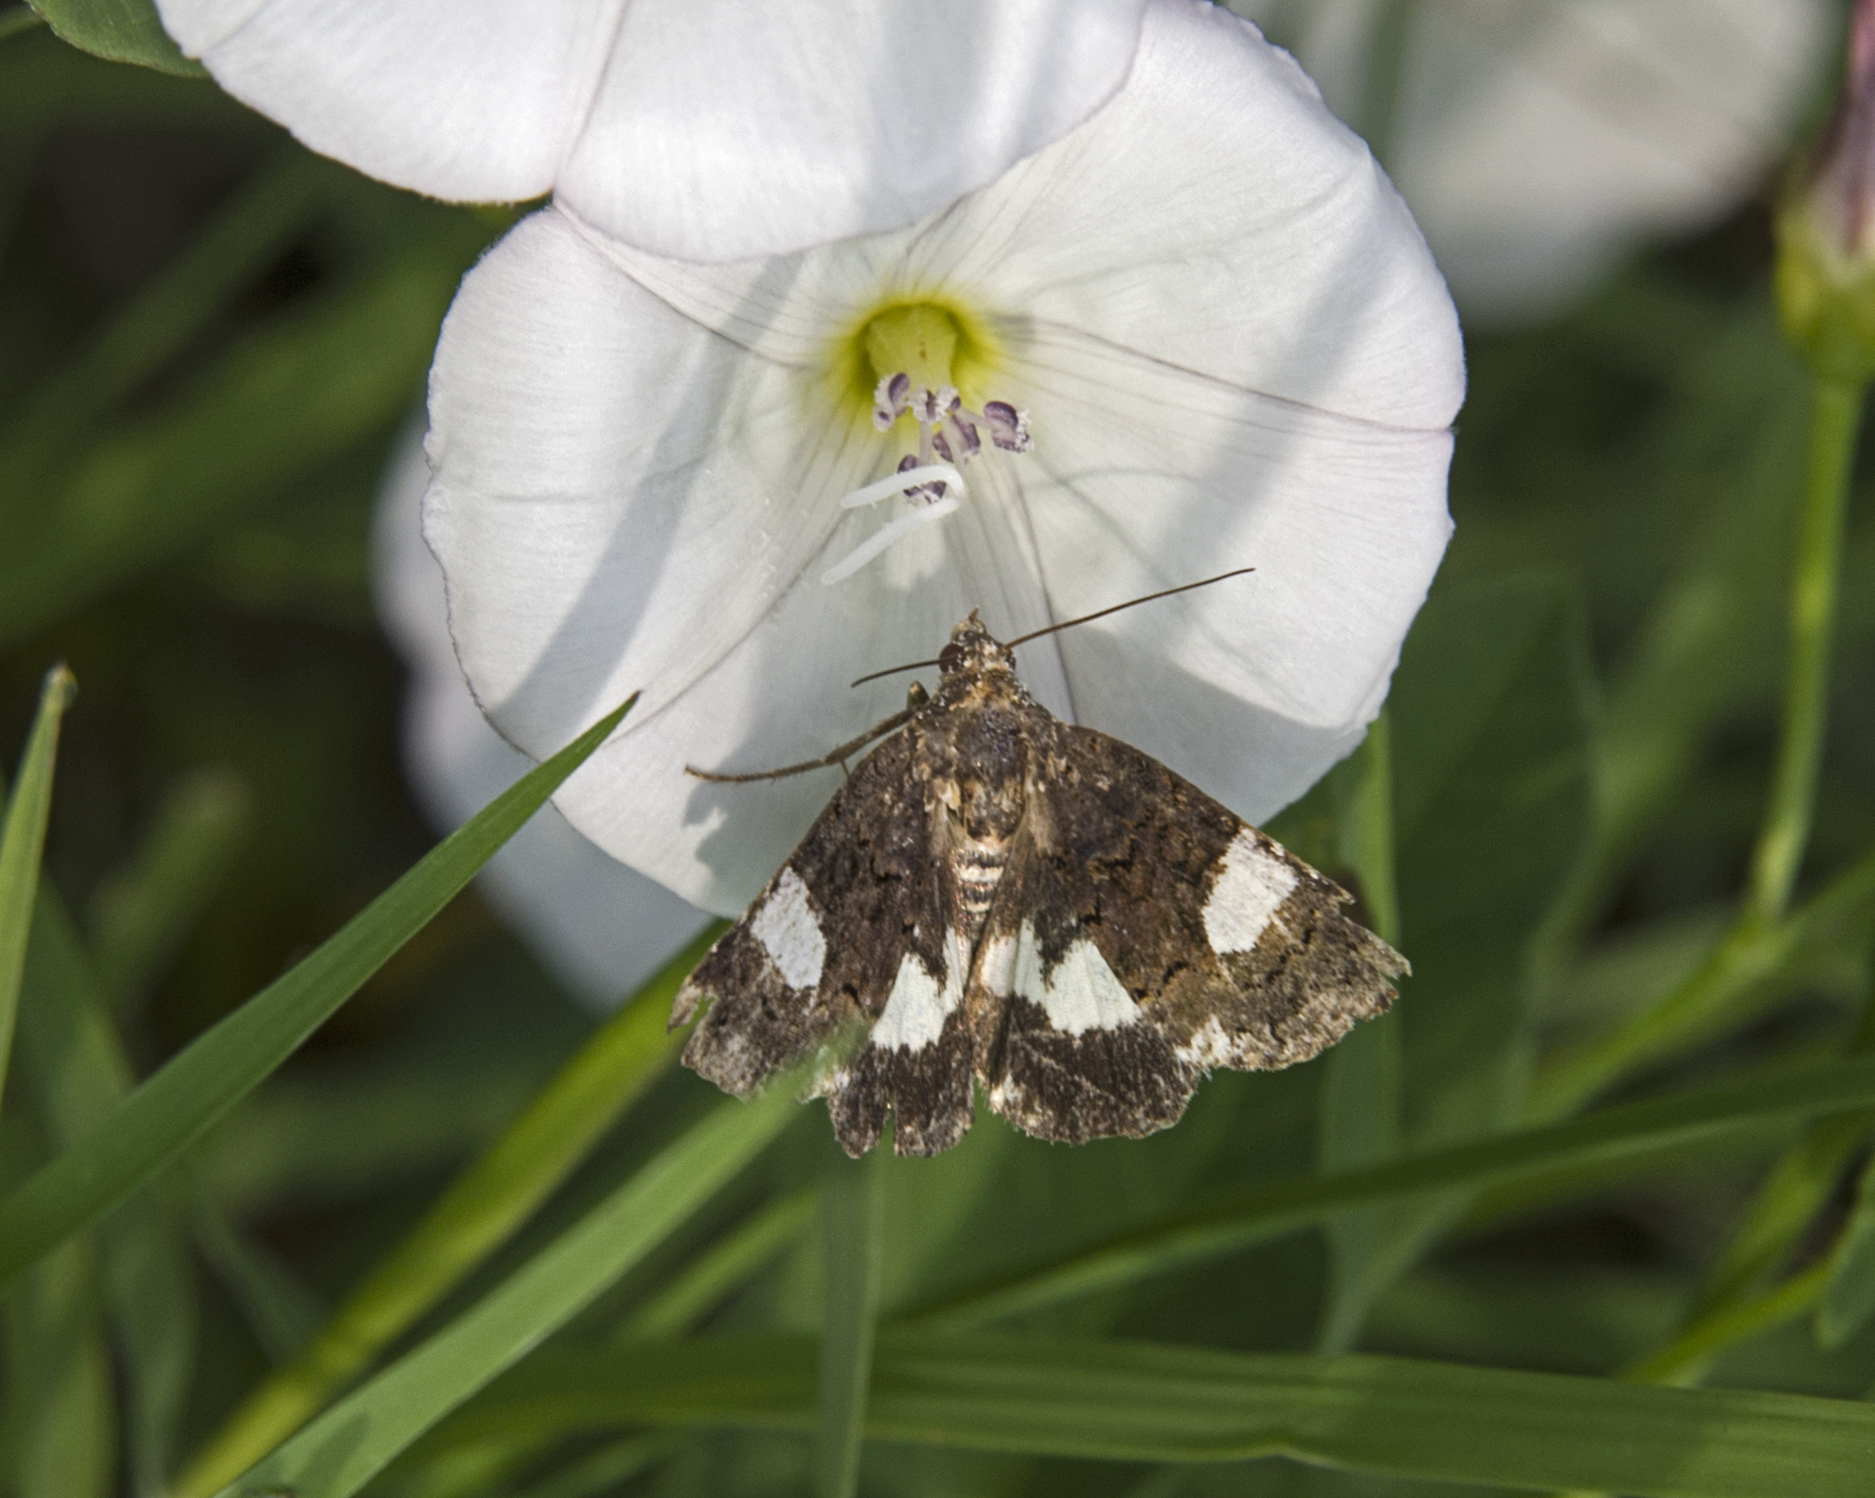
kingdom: Animalia
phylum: Arthropoda
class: Insecta
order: Lepidoptera
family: Erebidae
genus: Tyta
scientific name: Tyta luctuosa
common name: Four-spotted
